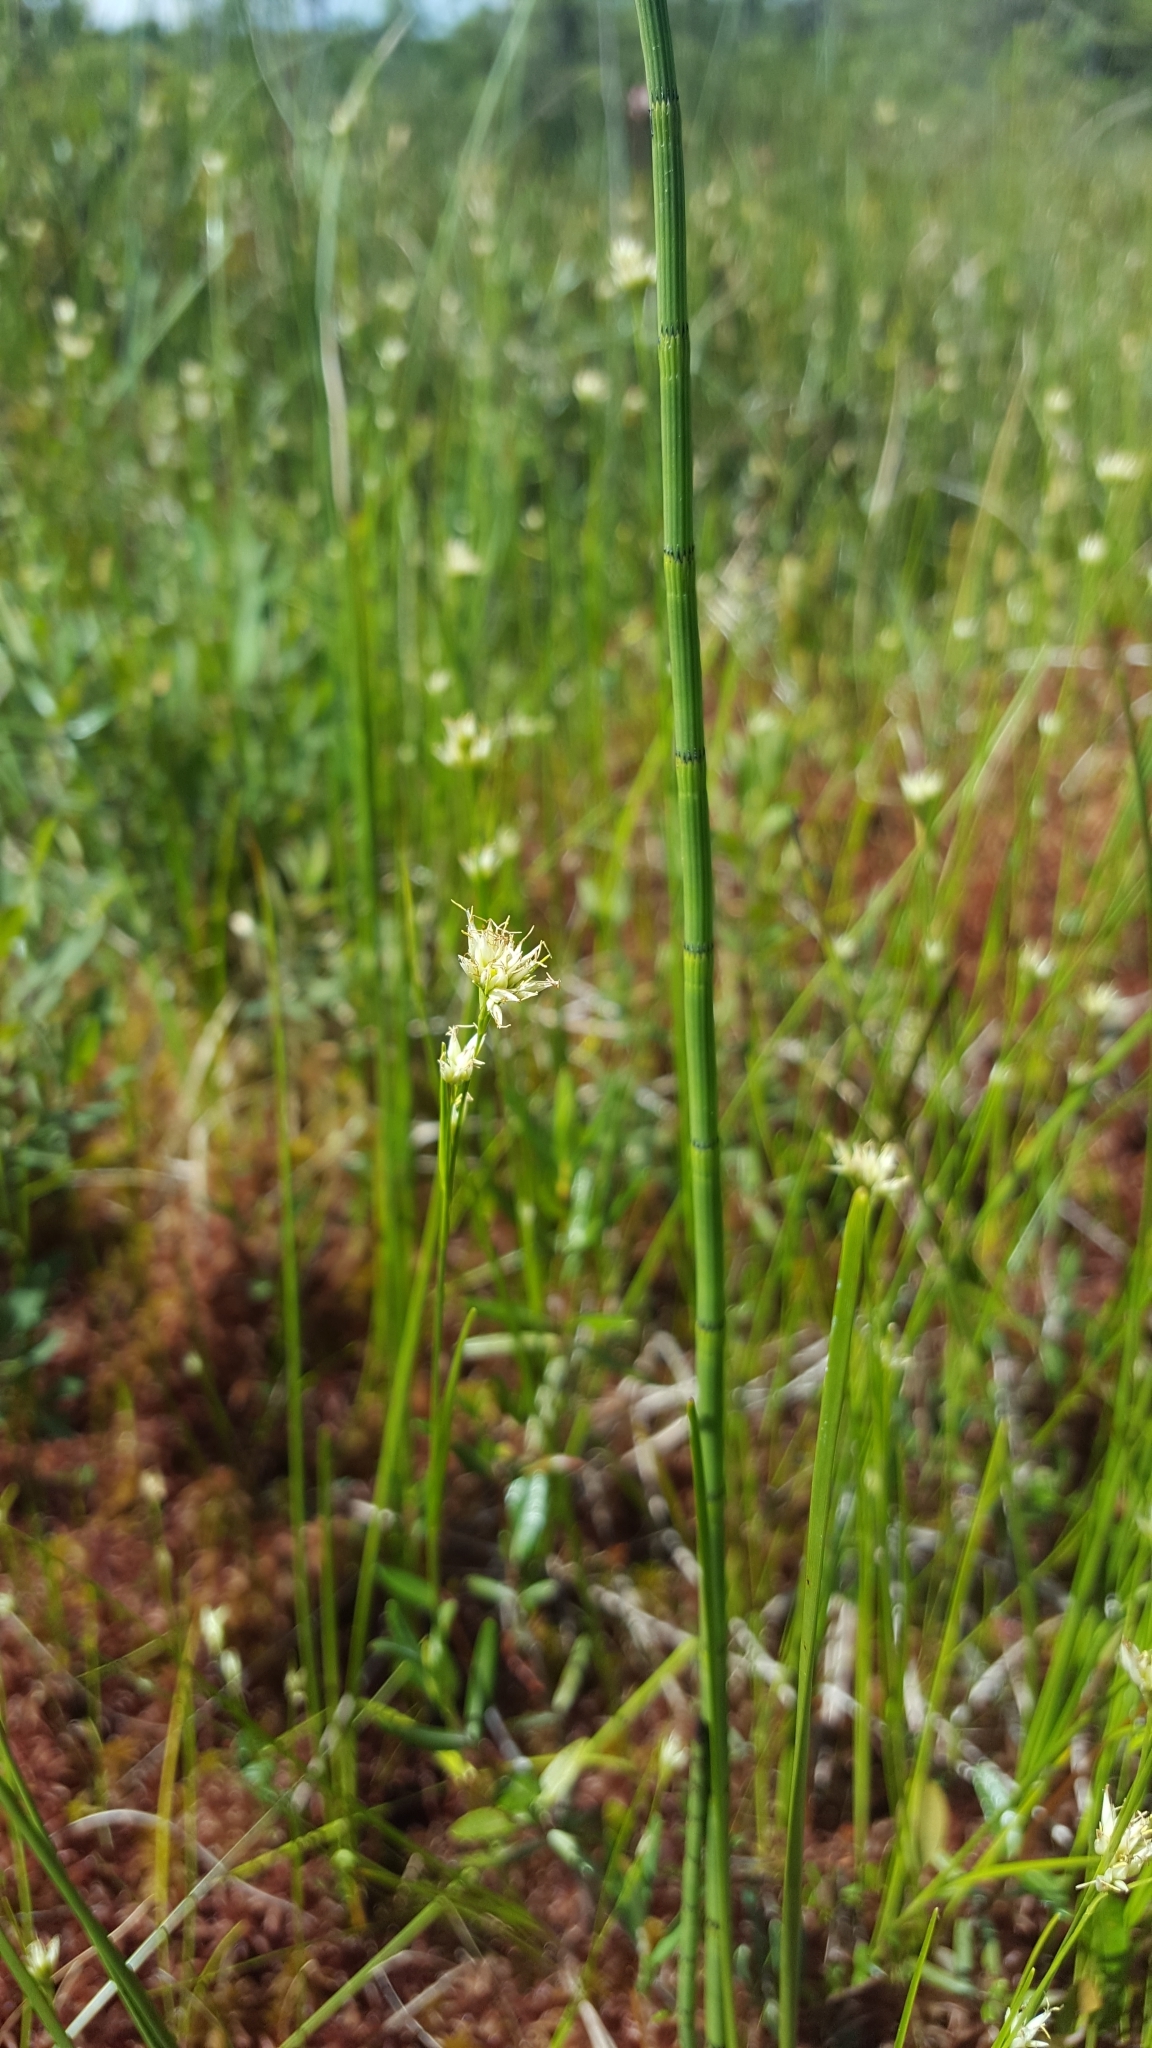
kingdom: Plantae
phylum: Tracheophyta
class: Liliopsida
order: Poales
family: Cyperaceae
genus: Rhynchospora
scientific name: Rhynchospora alba
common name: White beak-sedge
